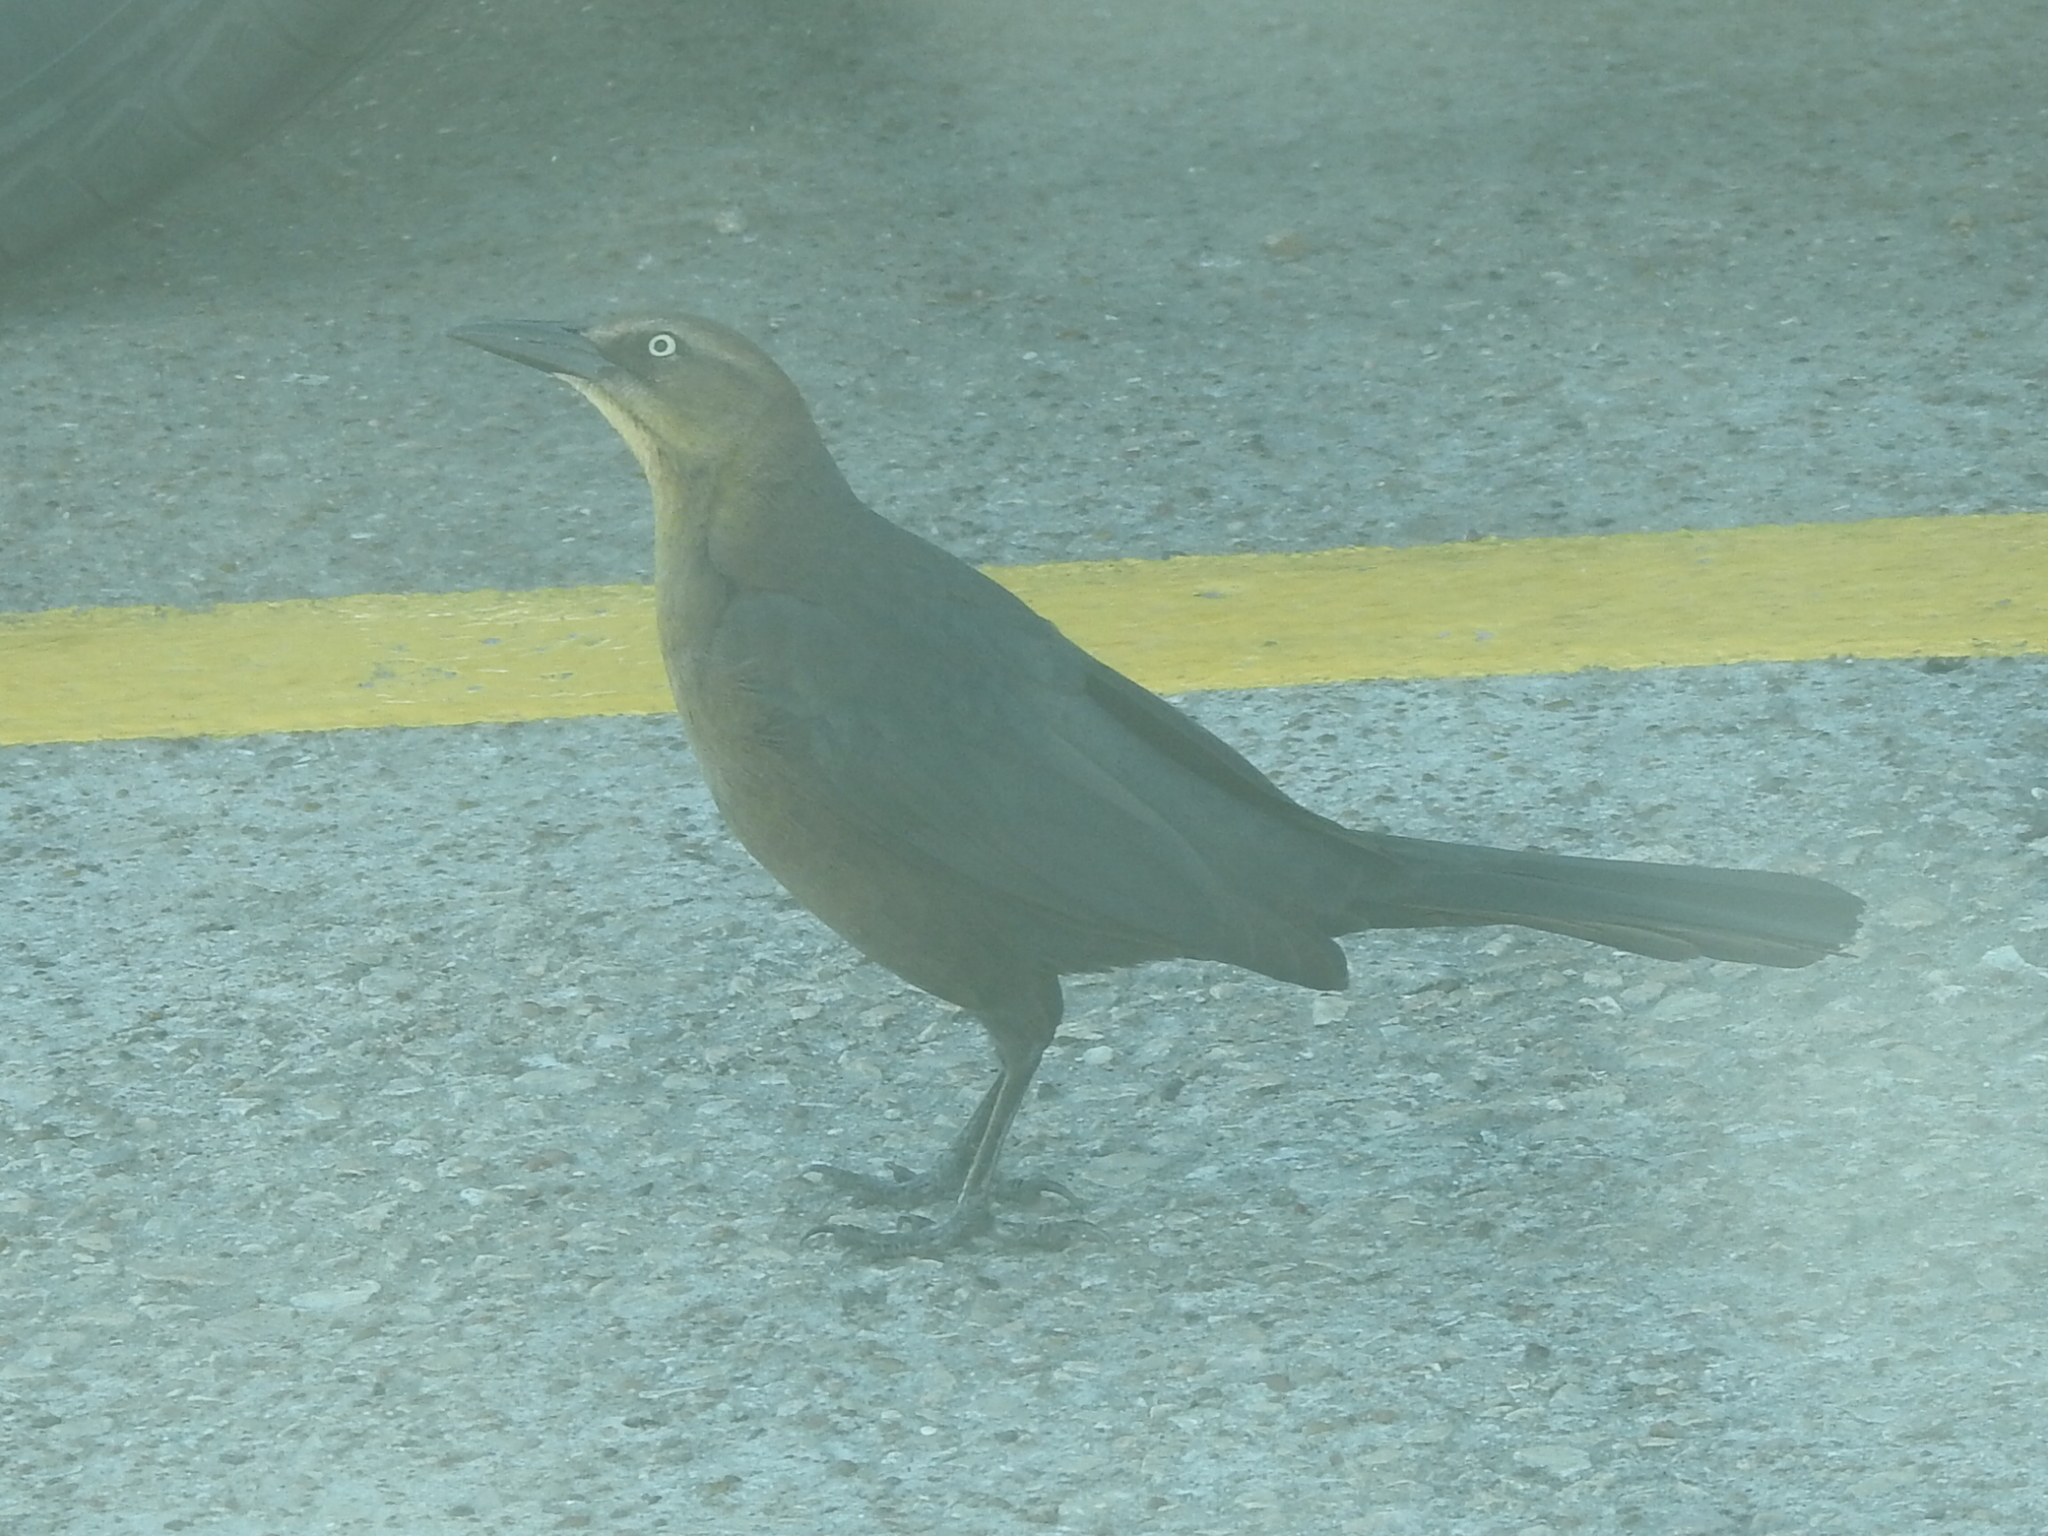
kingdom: Animalia
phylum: Chordata
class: Aves
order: Passeriformes
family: Icteridae
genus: Quiscalus
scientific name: Quiscalus mexicanus
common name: Great-tailed grackle
